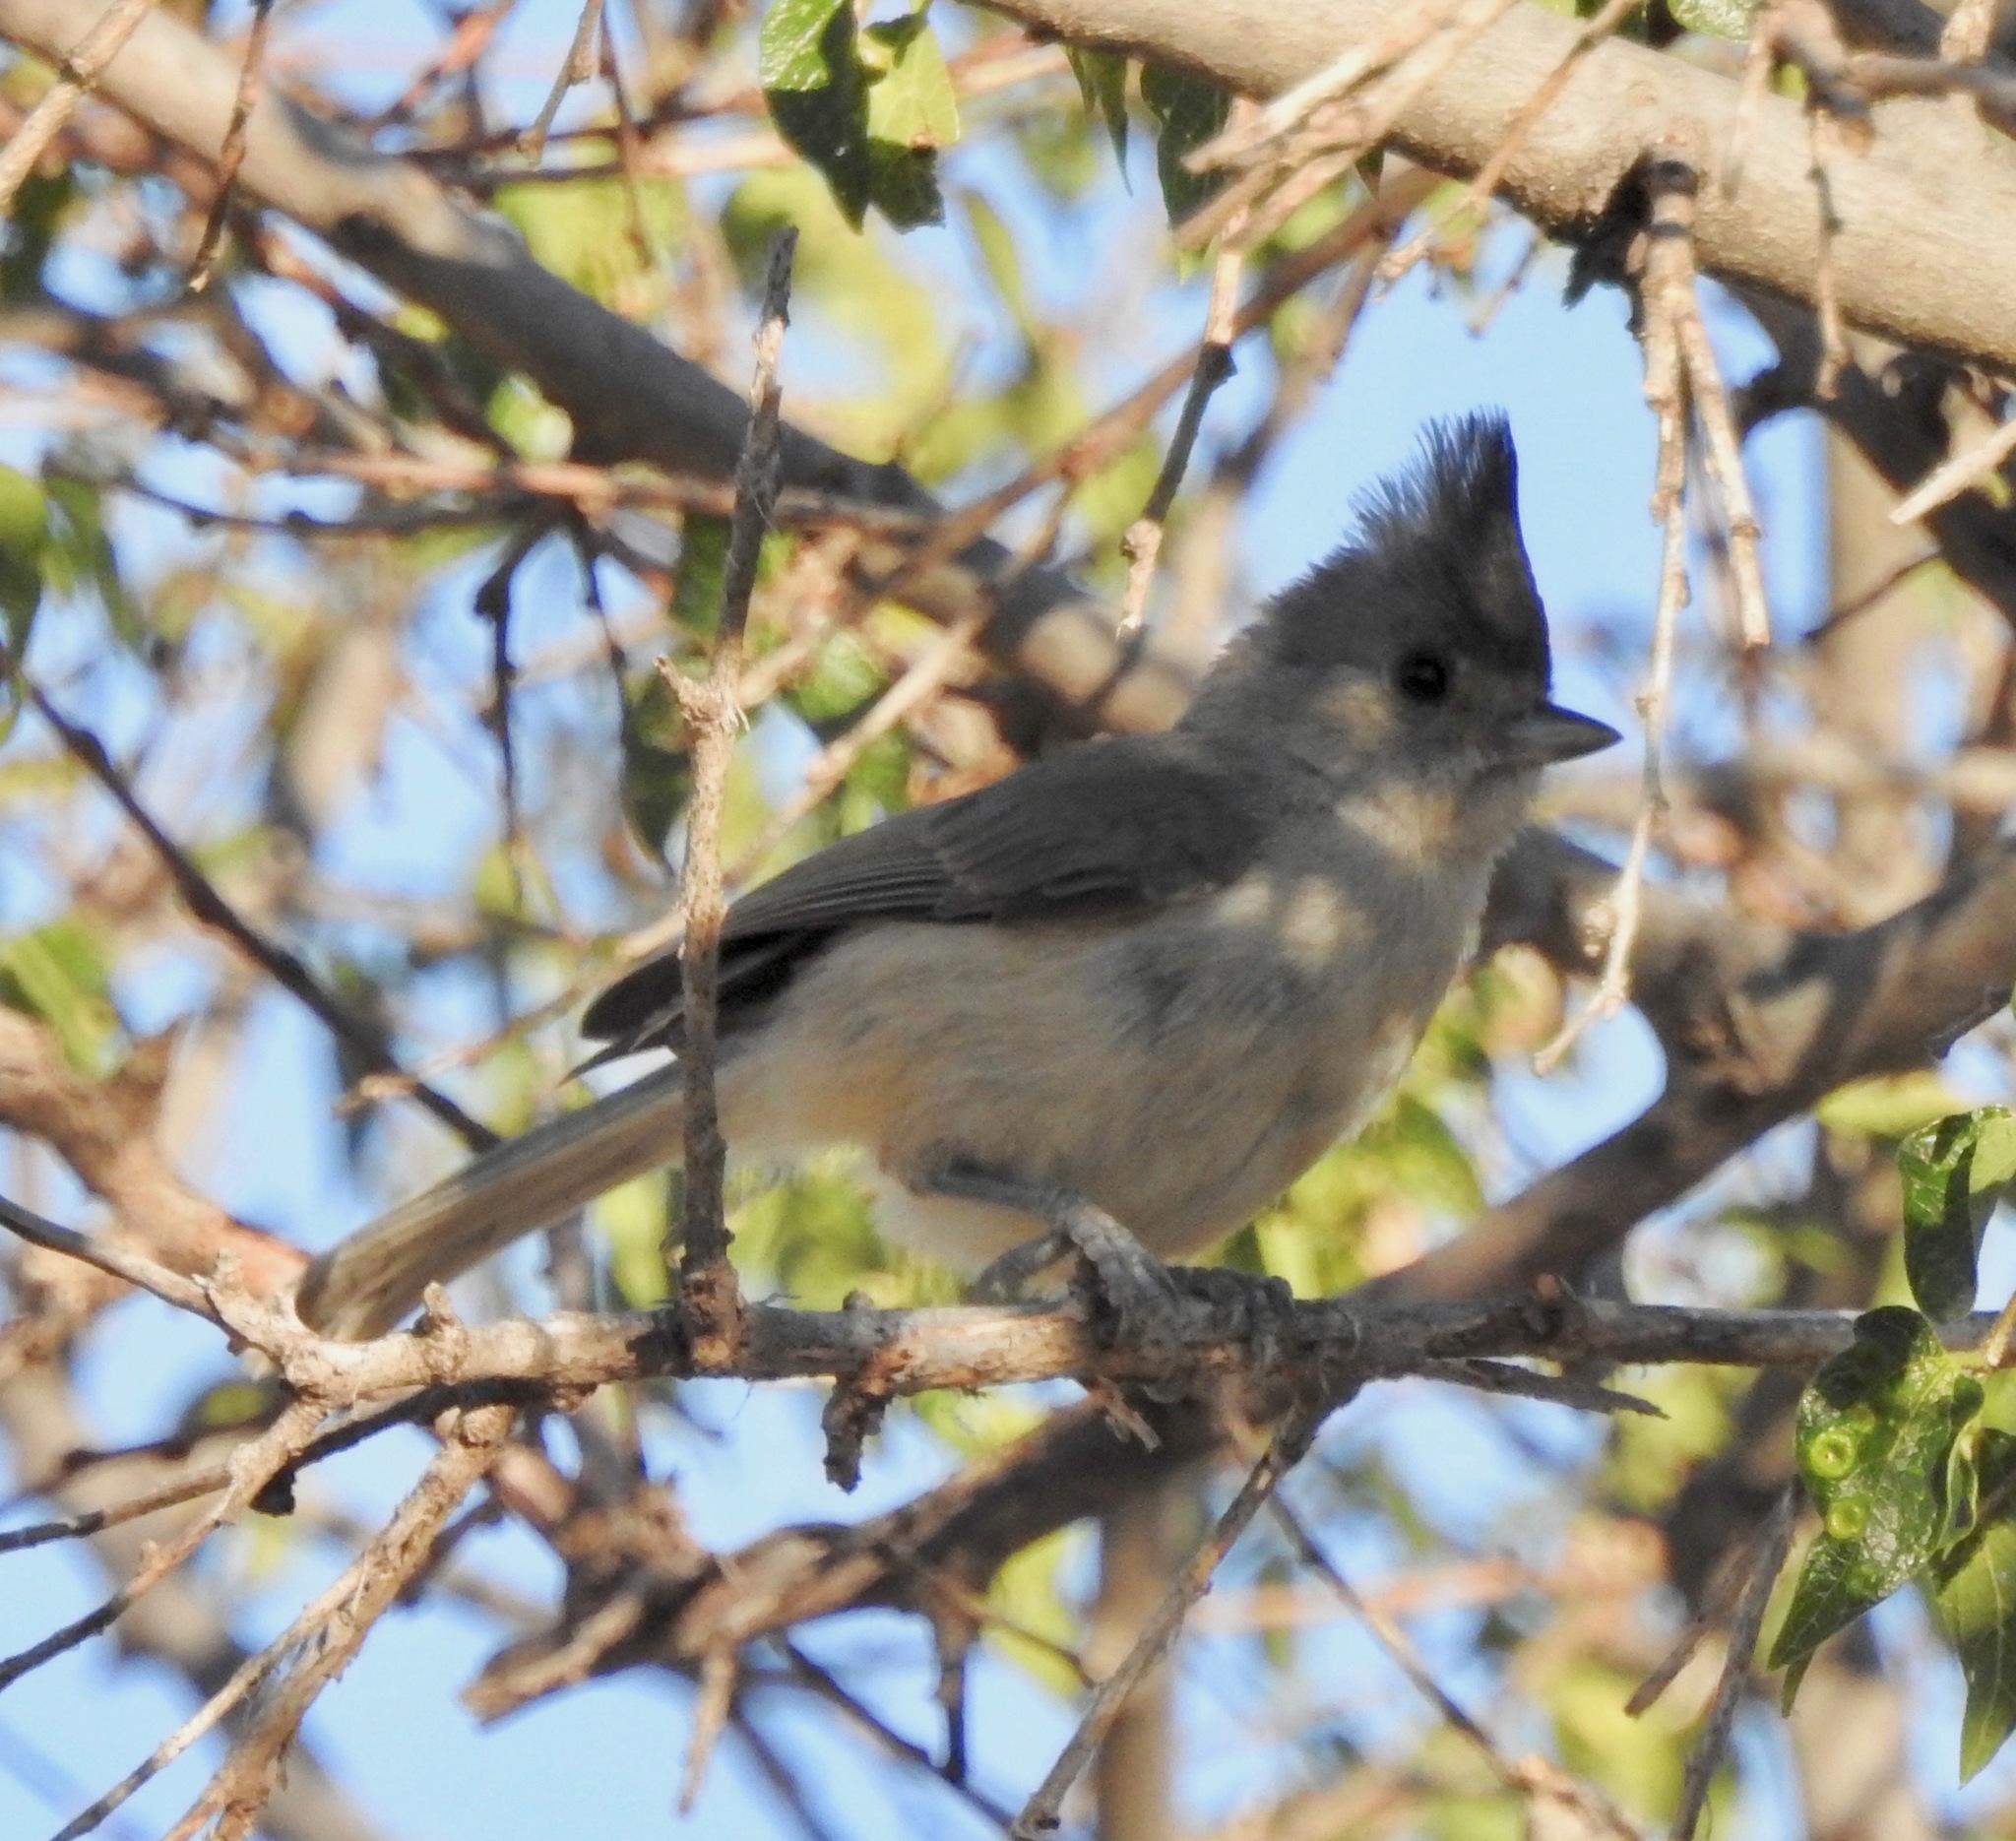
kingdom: Animalia
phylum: Chordata
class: Aves
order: Passeriformes
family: Paridae
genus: Baeolophus
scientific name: Baeolophus atricristatus
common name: Black-crested titmouse
